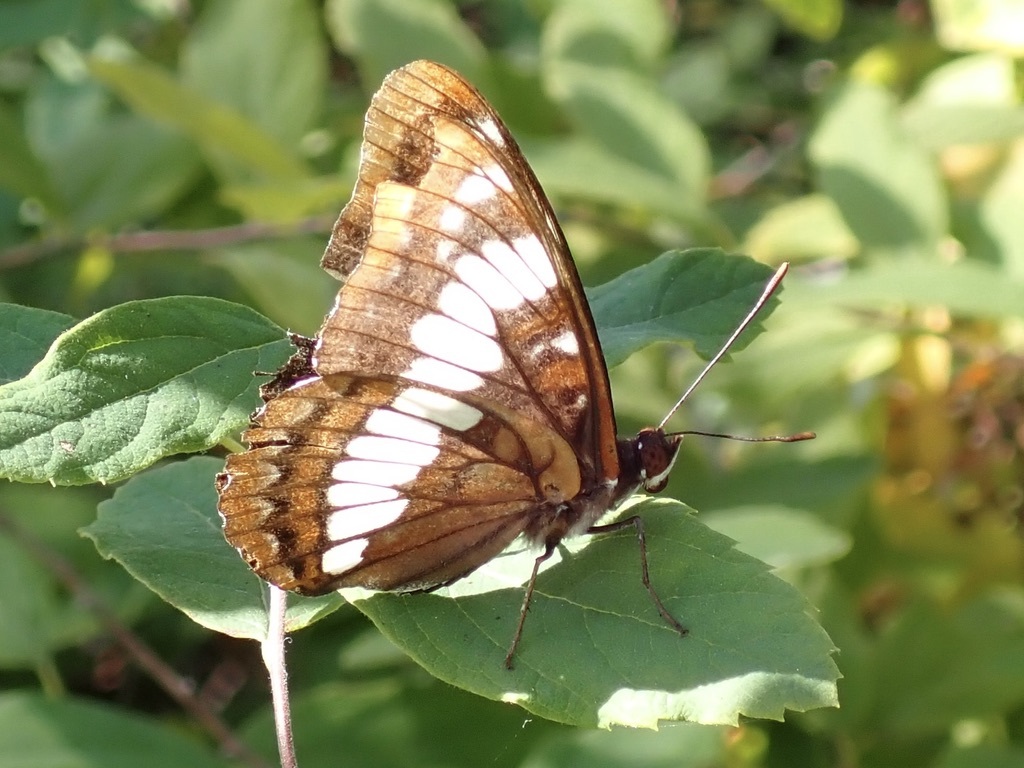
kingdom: Animalia
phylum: Arthropoda
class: Insecta
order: Lepidoptera
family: Nymphalidae
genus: Limenitis
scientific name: Limenitis lorquini
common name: Lorquin's admiral
